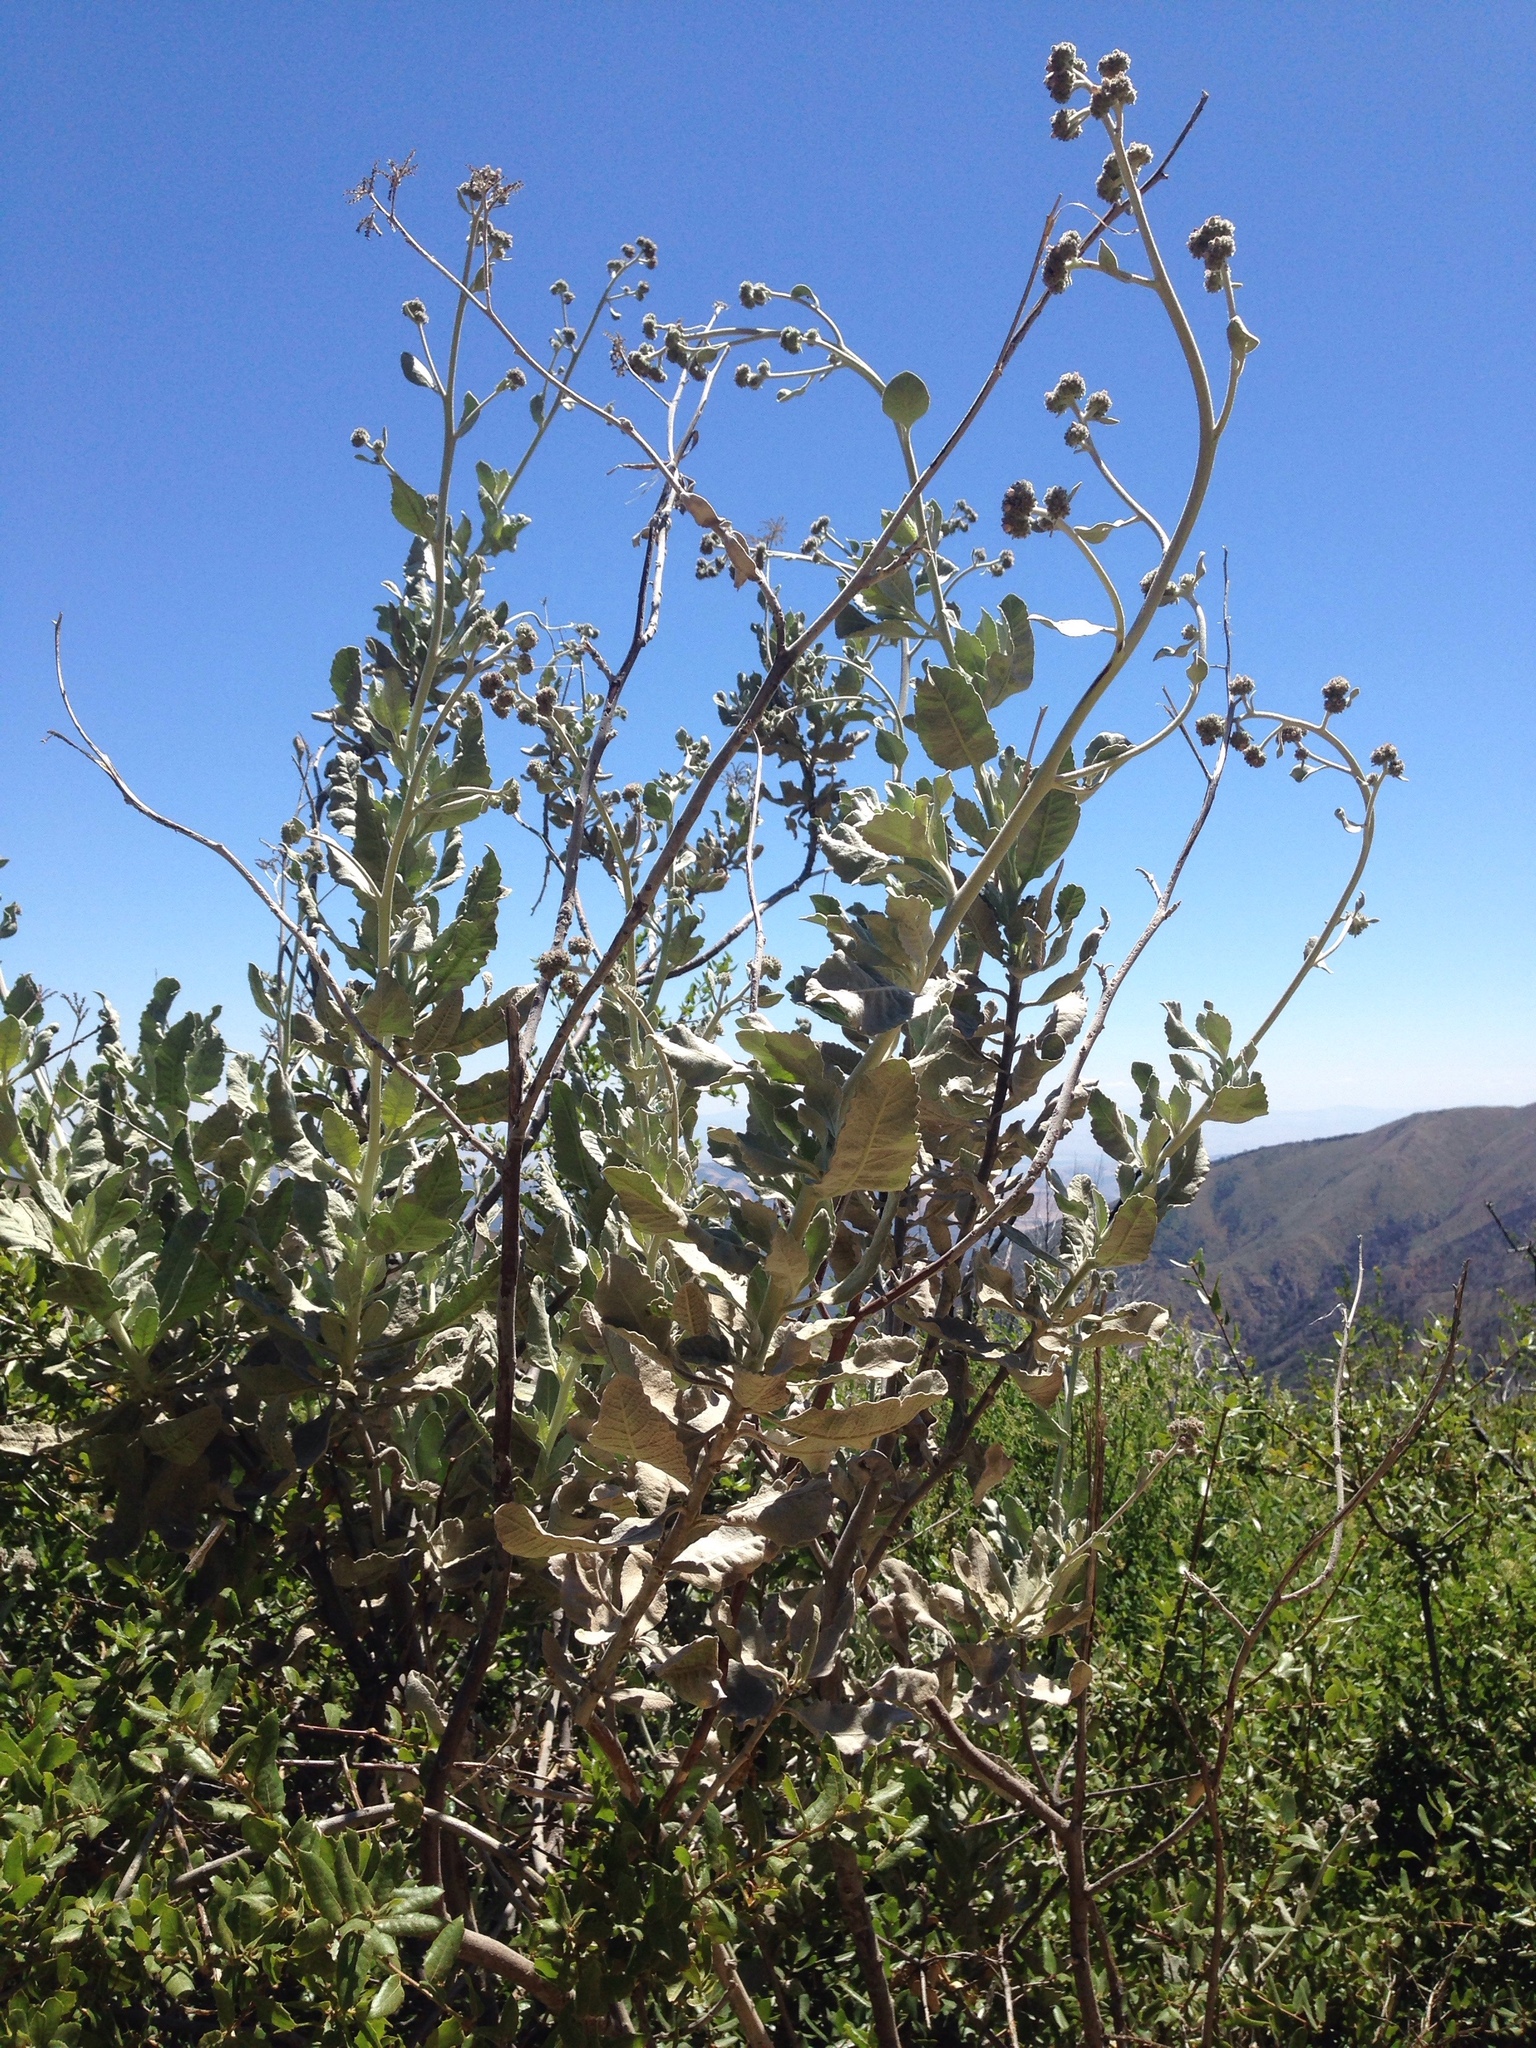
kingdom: Plantae
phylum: Tracheophyta
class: Magnoliopsida
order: Boraginales
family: Namaceae
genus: Eriodictyon
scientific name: Eriodictyon tomentosum
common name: Woolly yerba-santa
